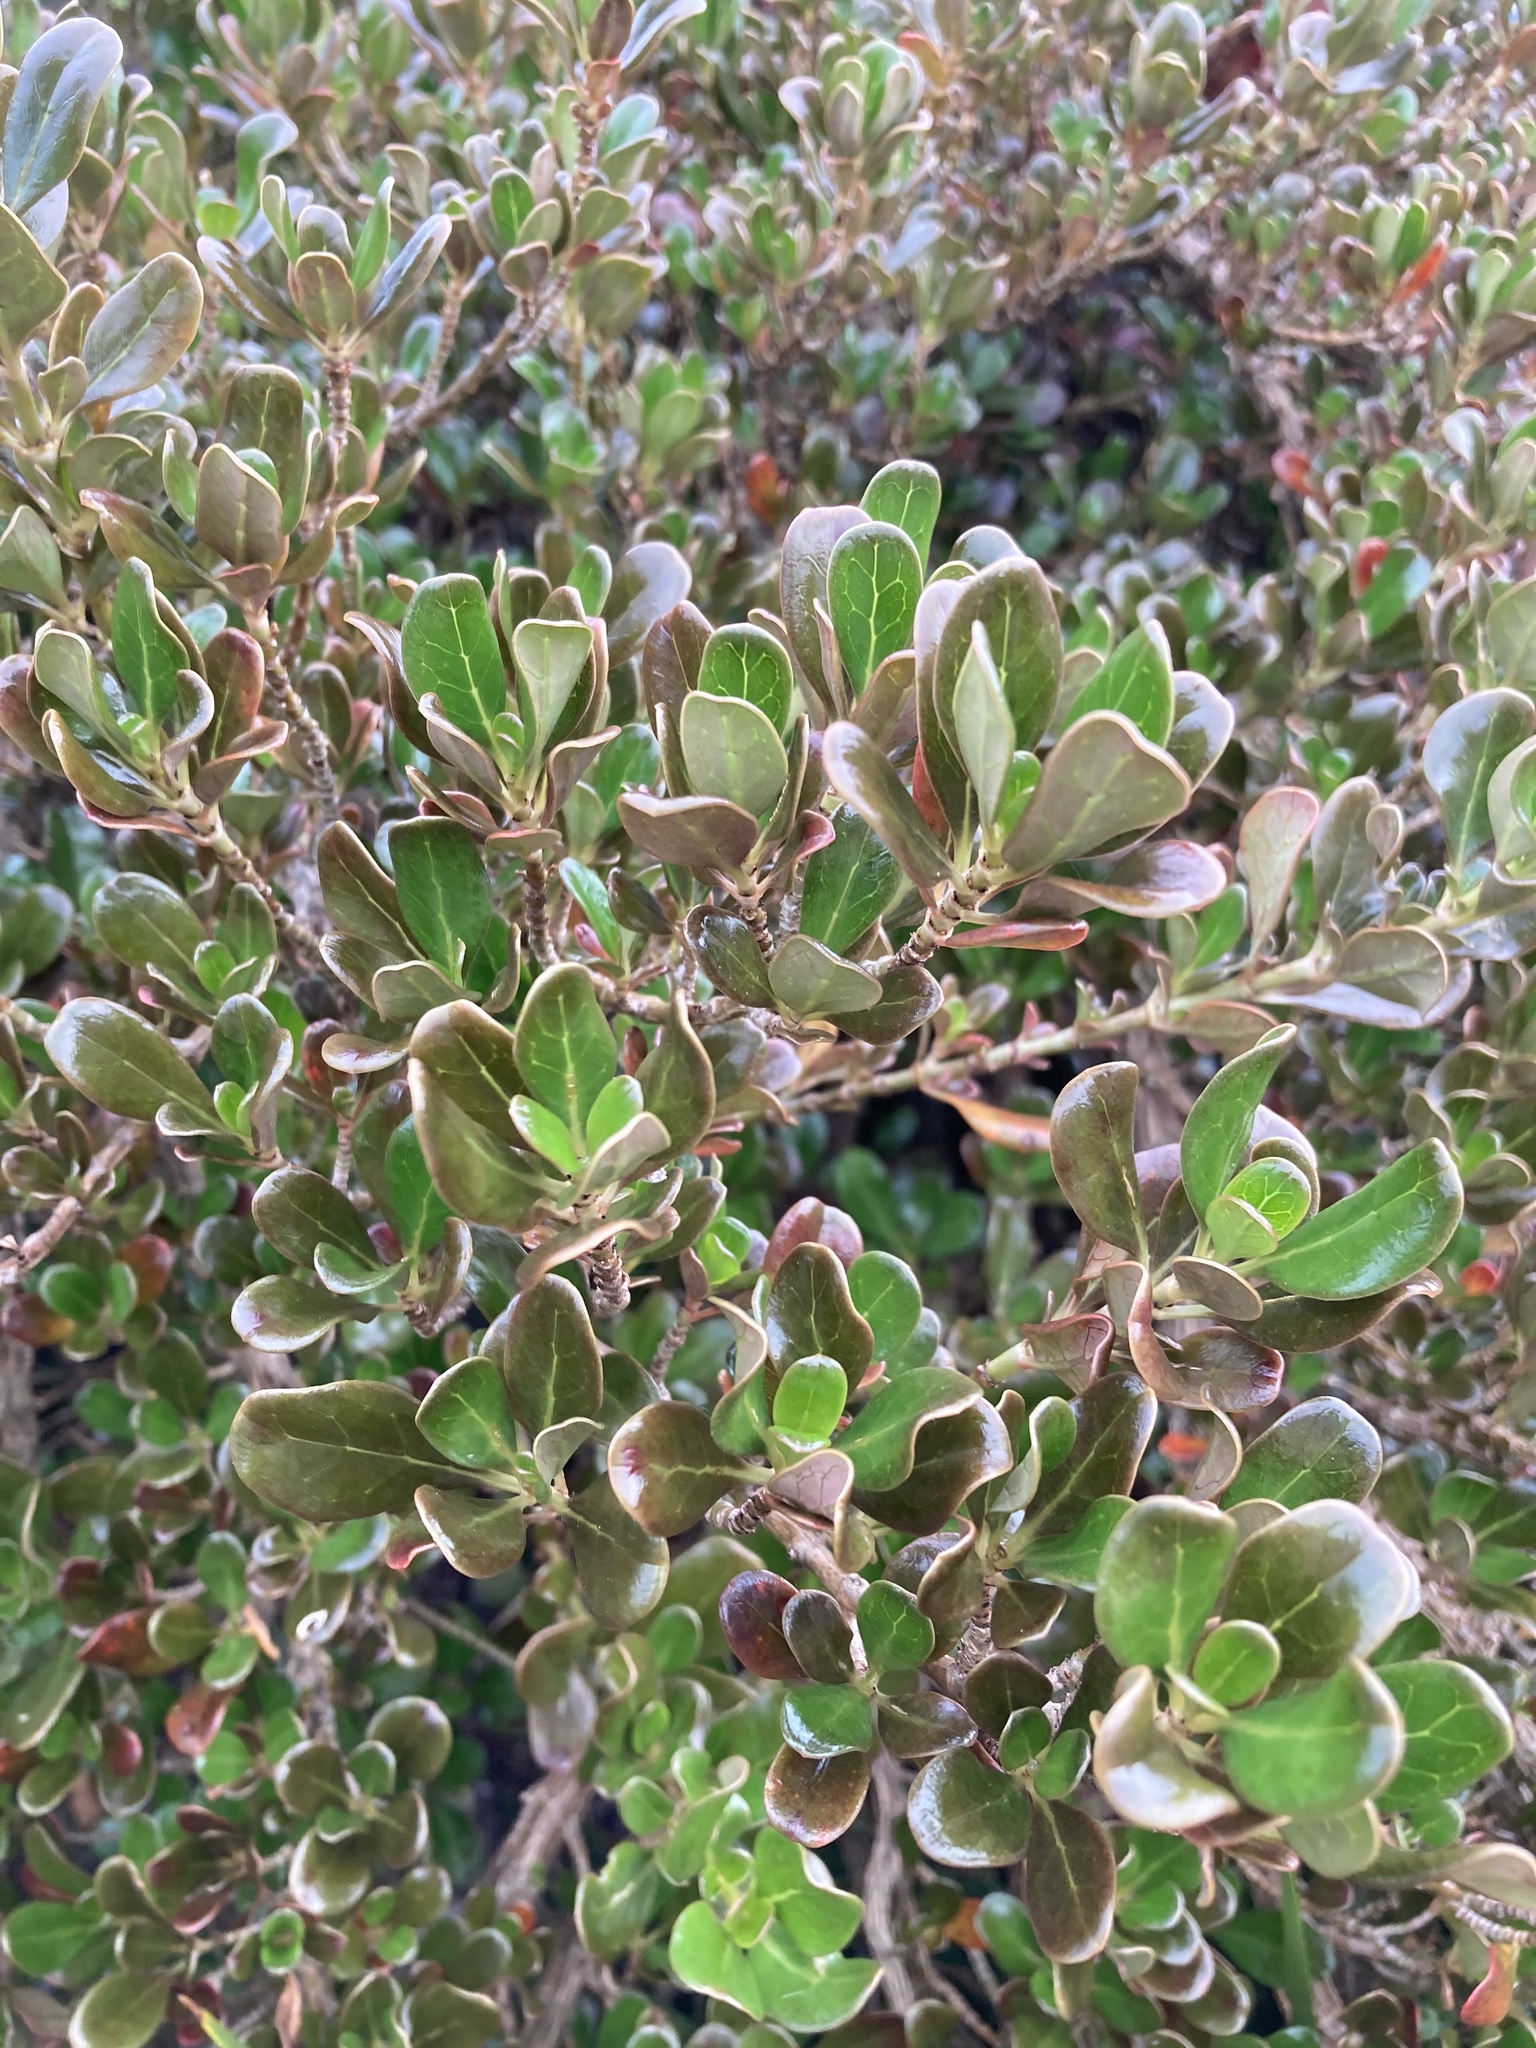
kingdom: Plantae
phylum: Tracheophyta
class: Magnoliopsida
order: Gentianales
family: Rubiaceae
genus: Coprosma
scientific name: Coprosma repens
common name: Tree bedstraw
